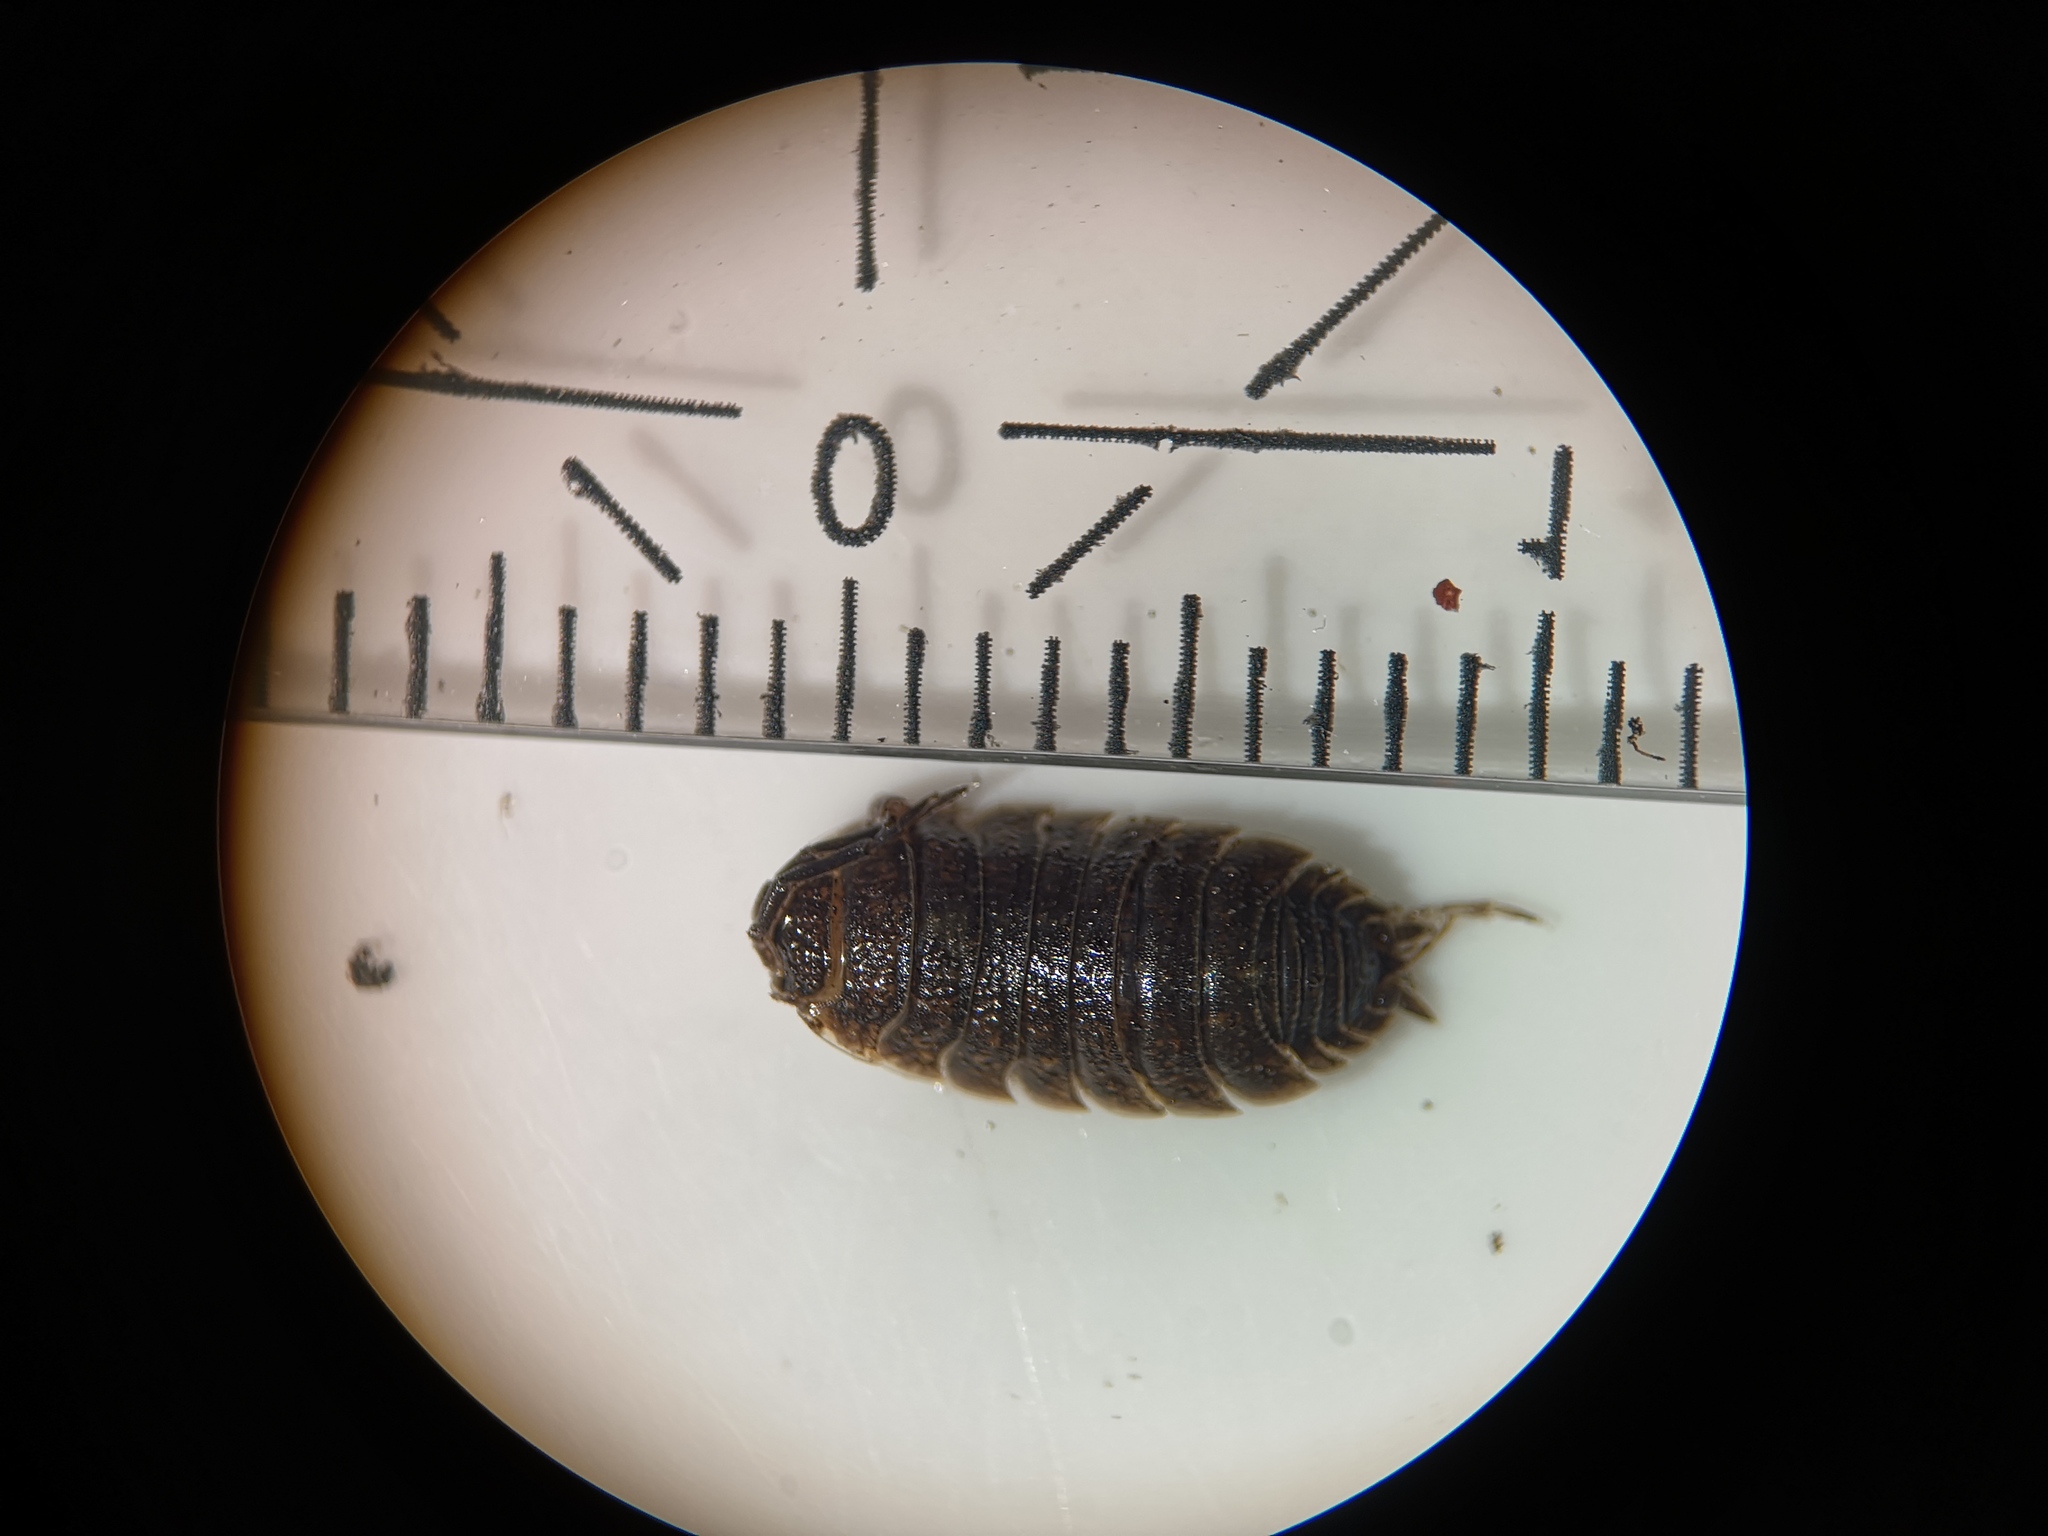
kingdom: Animalia
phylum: Arthropoda
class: Malacostraca
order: Isopoda
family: Porcellionidae
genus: Porcellio
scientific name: Porcellio scaber
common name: Common rough woodlouse
